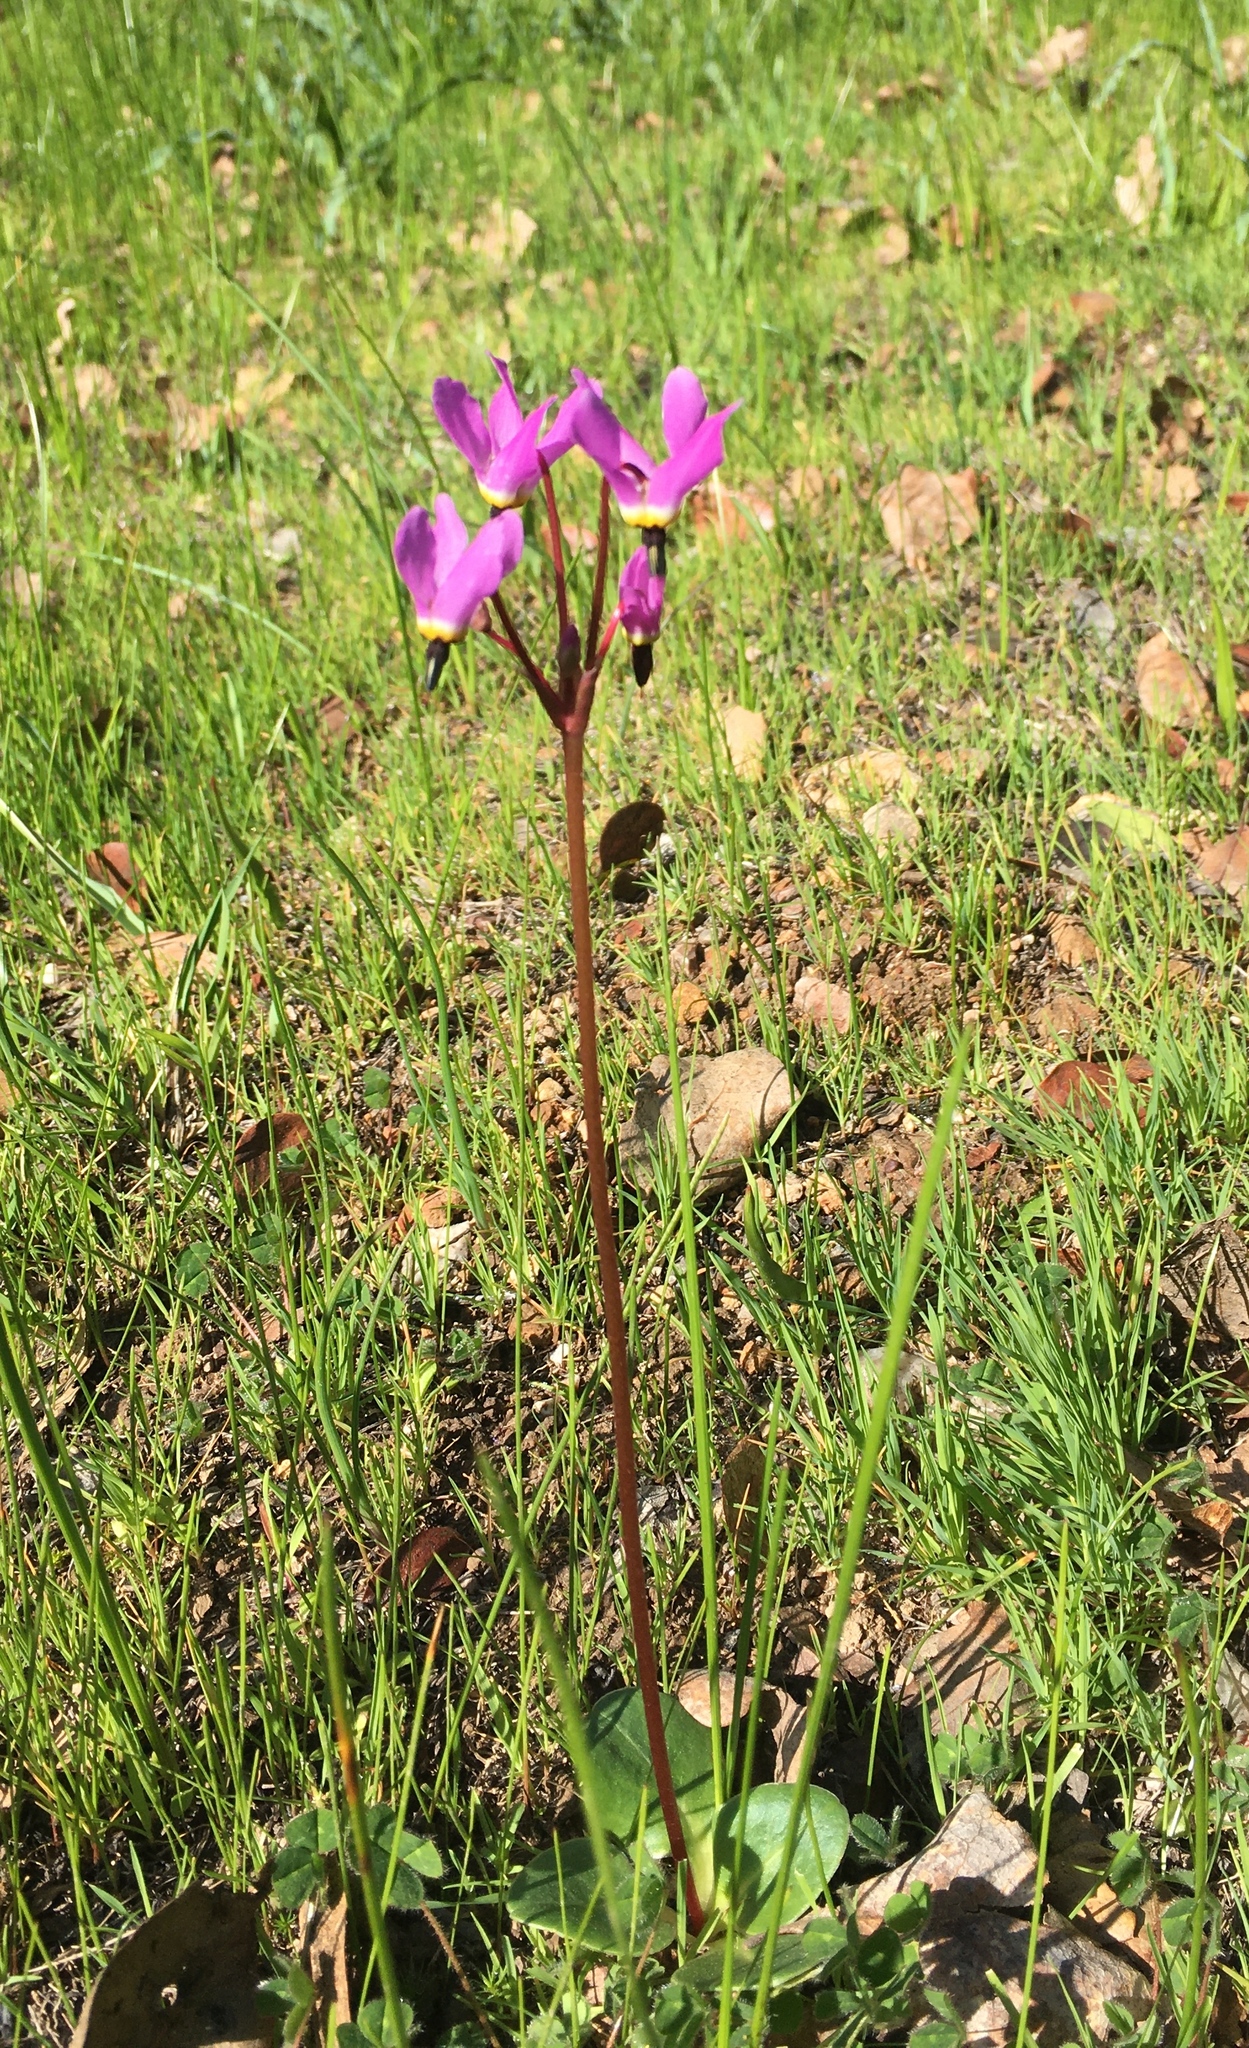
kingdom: Plantae
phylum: Tracheophyta
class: Magnoliopsida
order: Ericales
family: Primulaceae
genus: Dodecatheon
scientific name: Dodecatheon hendersonii
